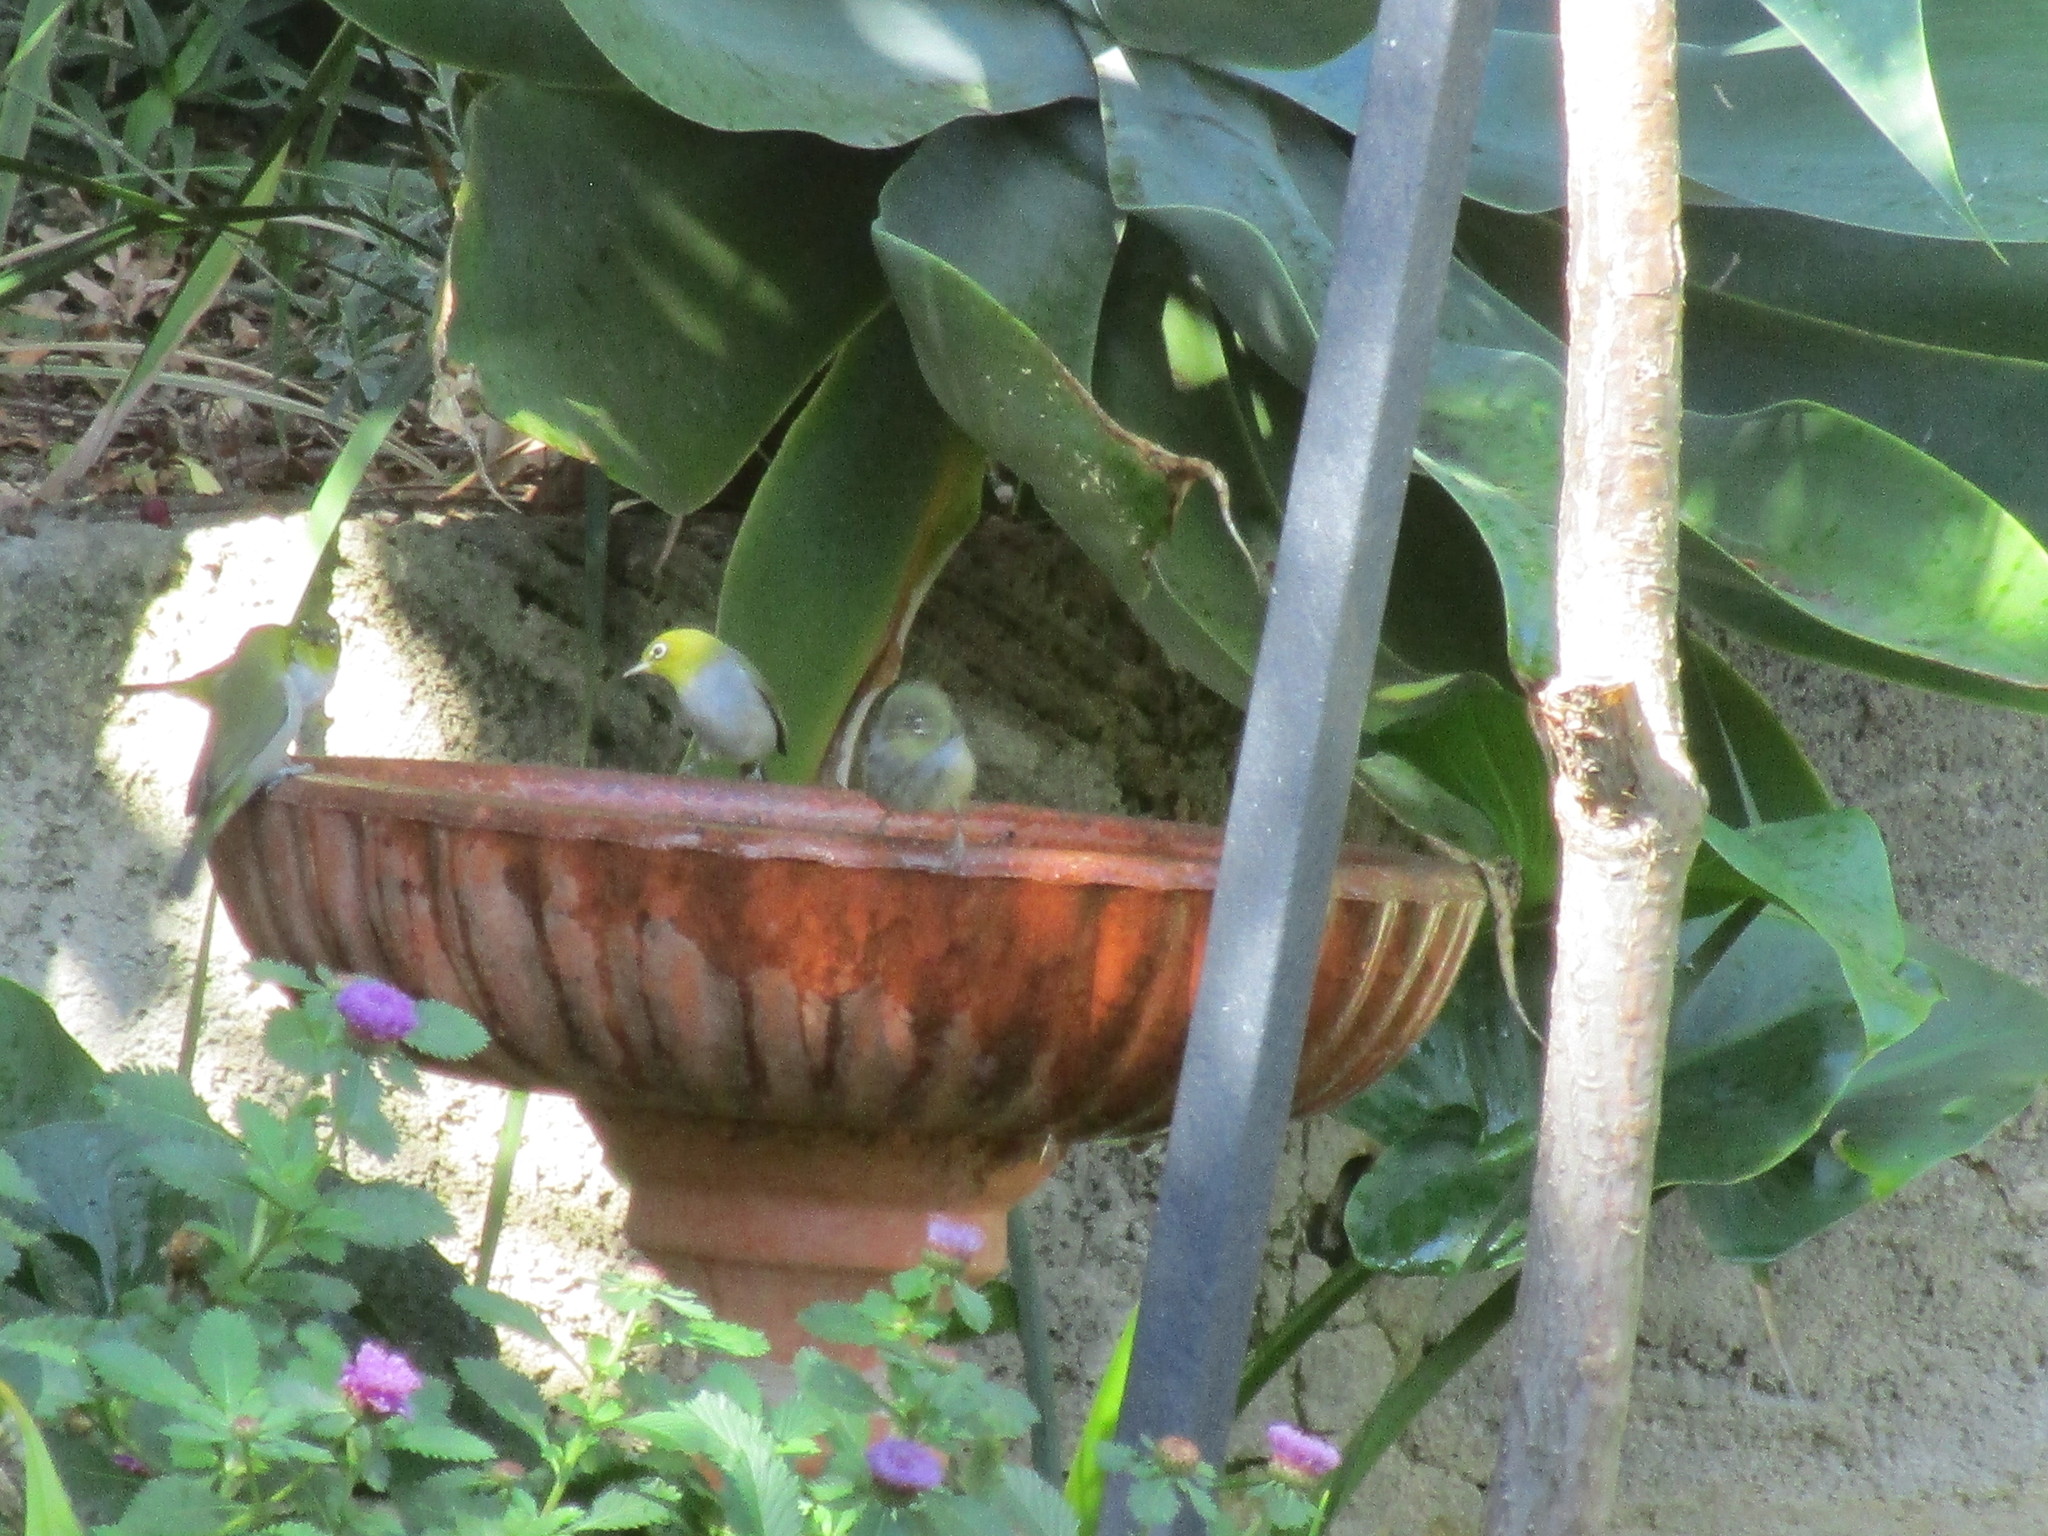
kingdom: Animalia
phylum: Chordata
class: Aves
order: Passeriformes
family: Zosteropidae
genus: Zosterops
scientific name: Zosterops lateralis
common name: Silvereye
